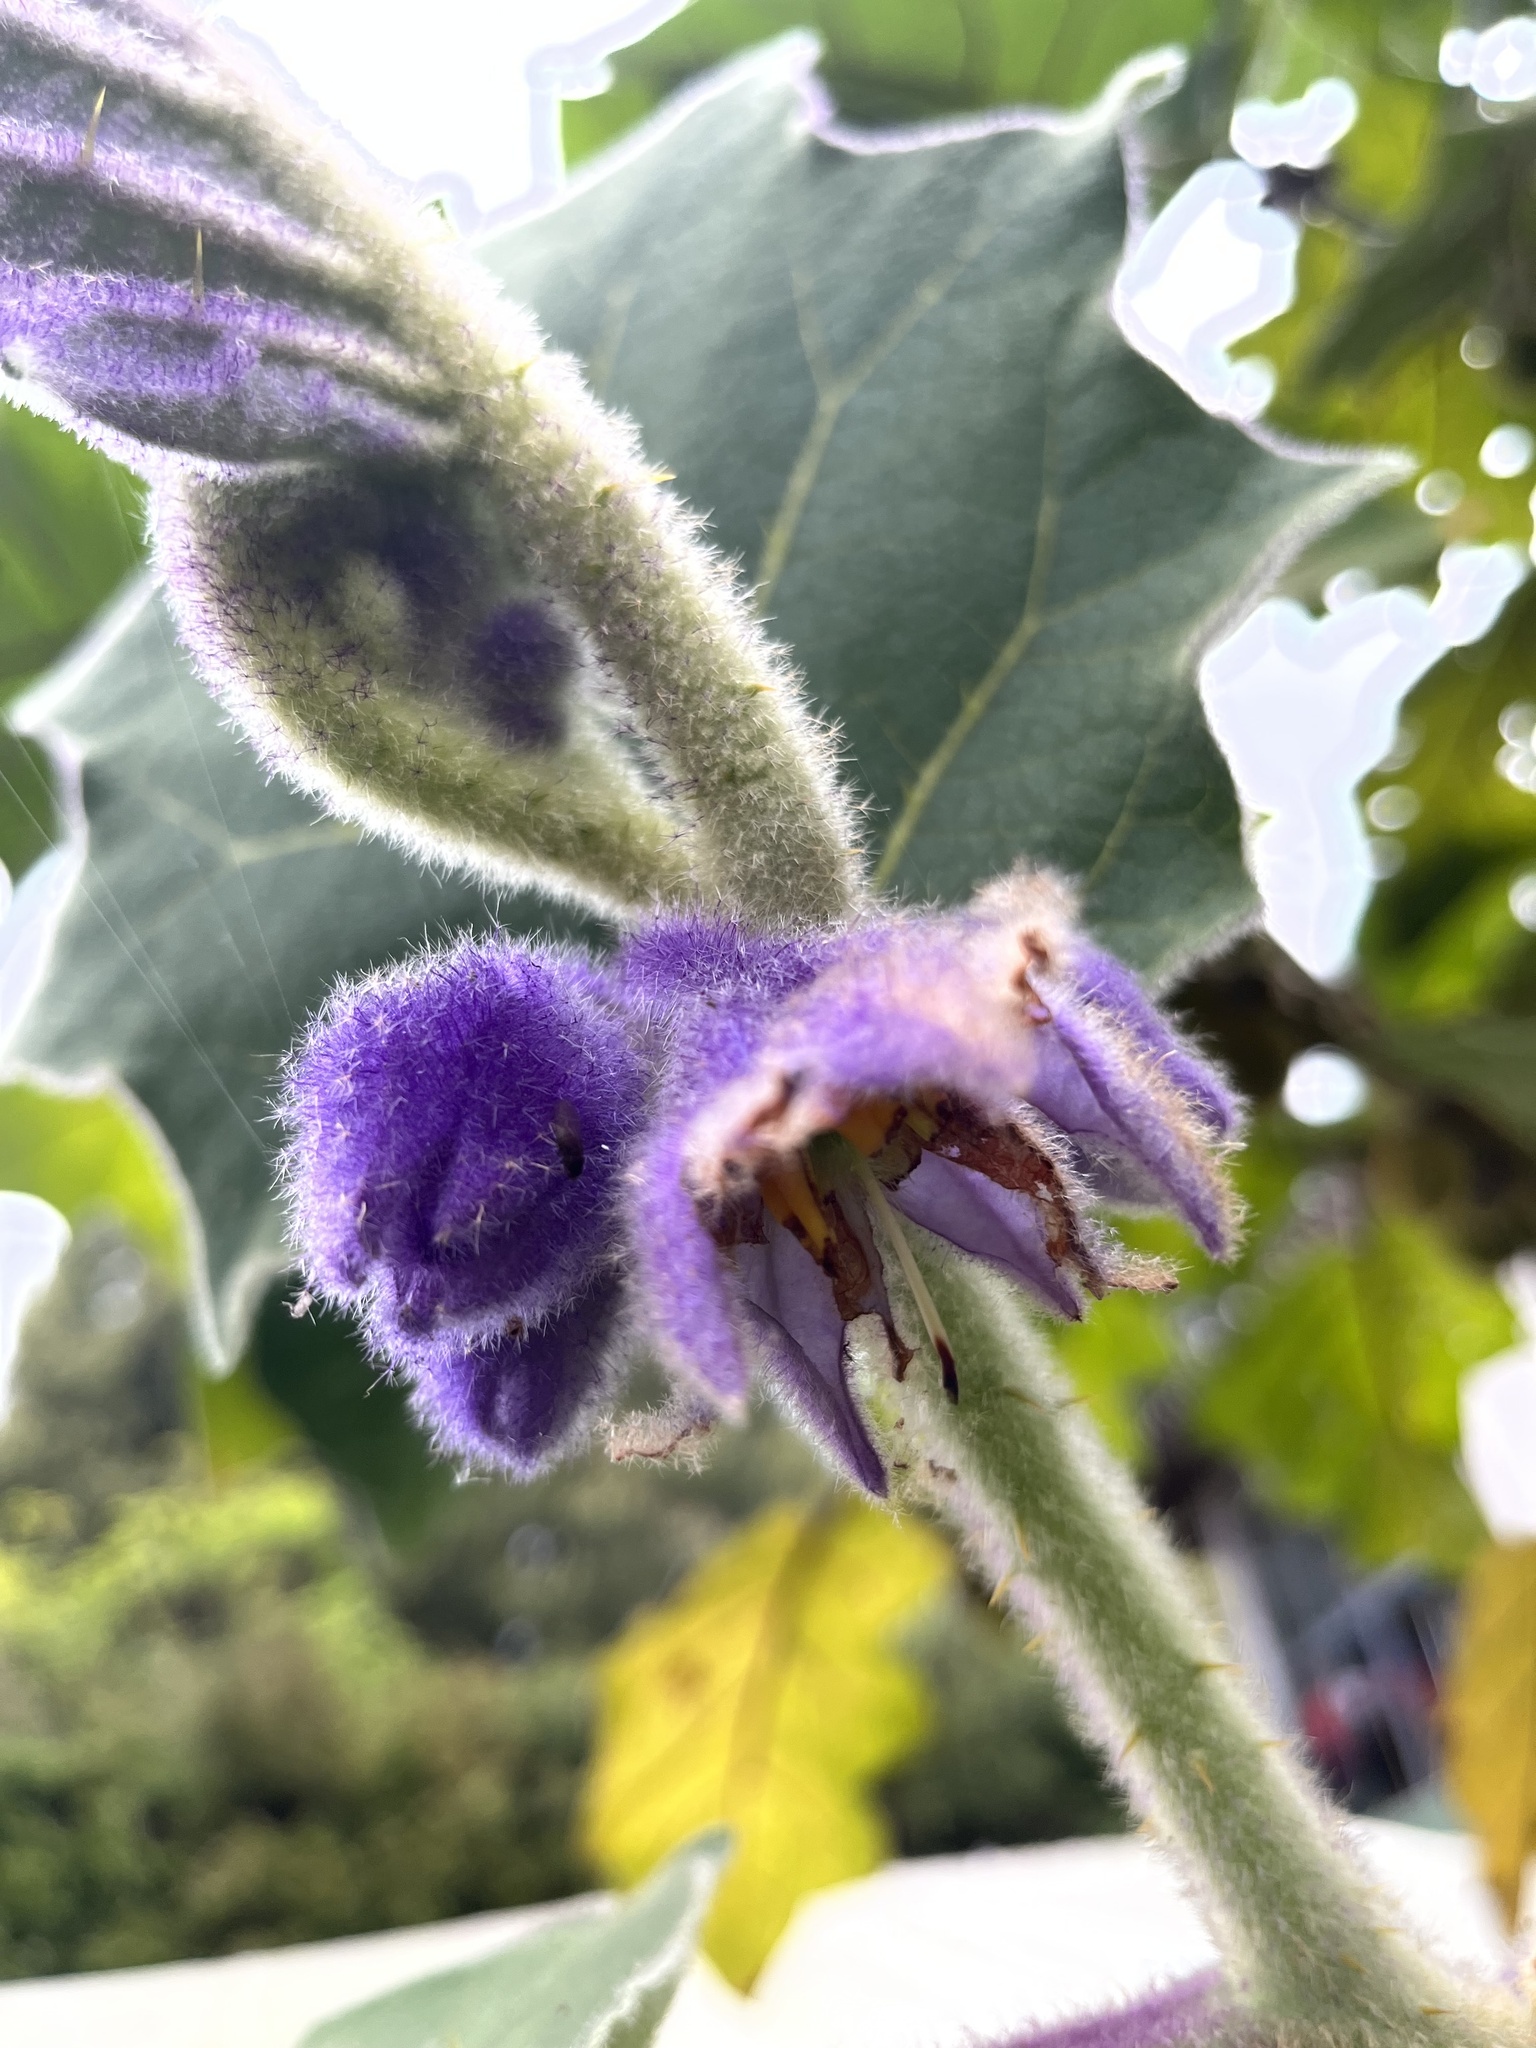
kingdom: Plantae
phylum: Tracheophyta
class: Magnoliopsida
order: Solanales
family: Solanaceae
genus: Solanum
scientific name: Solanum vestissimum
